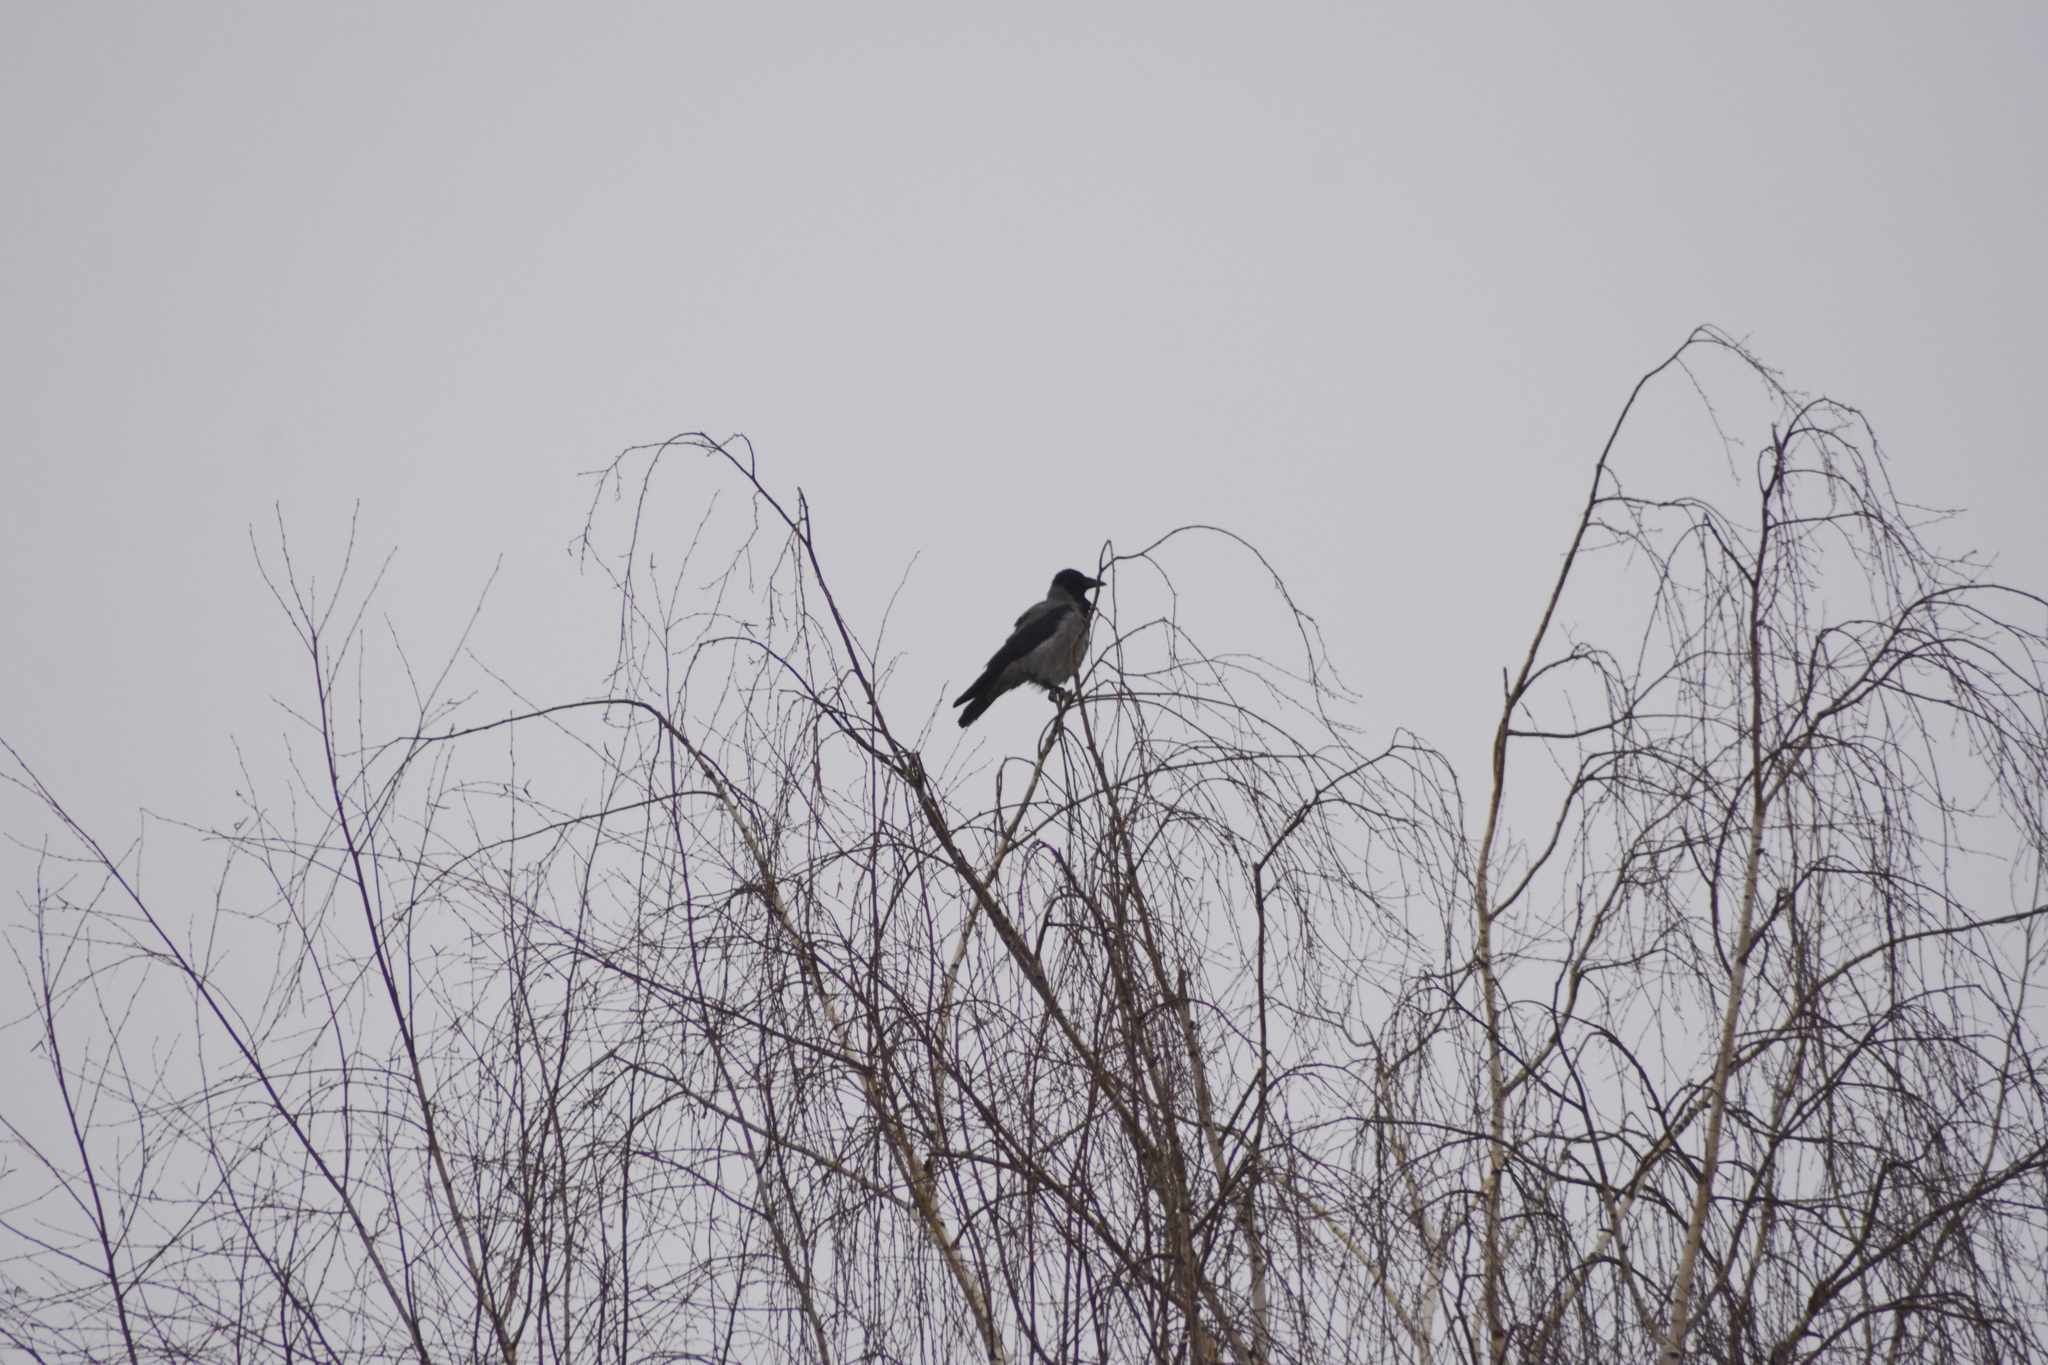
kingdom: Animalia
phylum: Chordata
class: Aves
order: Passeriformes
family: Corvidae
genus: Corvus
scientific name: Corvus cornix
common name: Hooded crow
